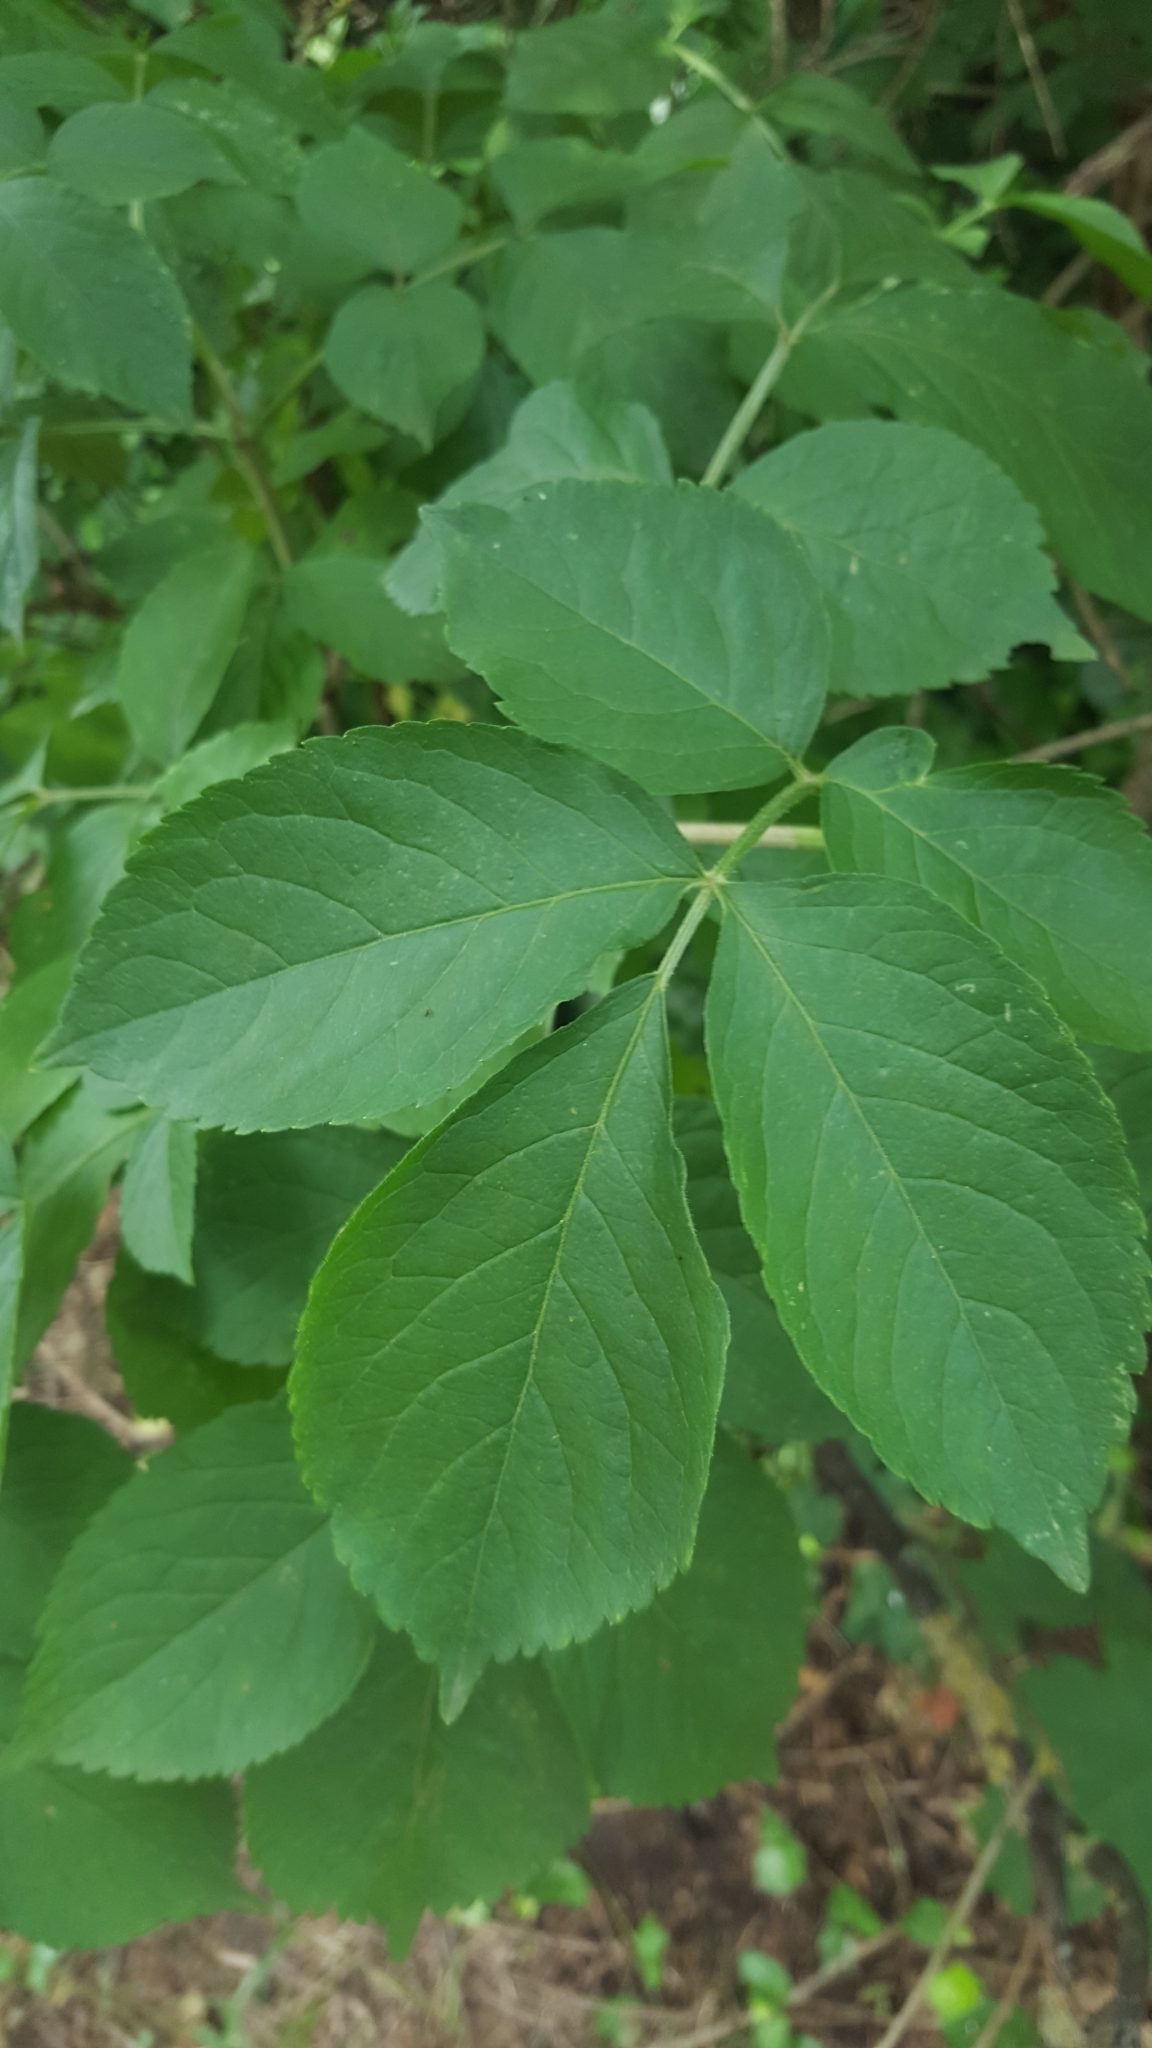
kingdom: Plantae
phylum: Tracheophyta
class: Magnoliopsida
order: Dipsacales
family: Viburnaceae
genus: Sambucus
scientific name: Sambucus nigra
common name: Elder
